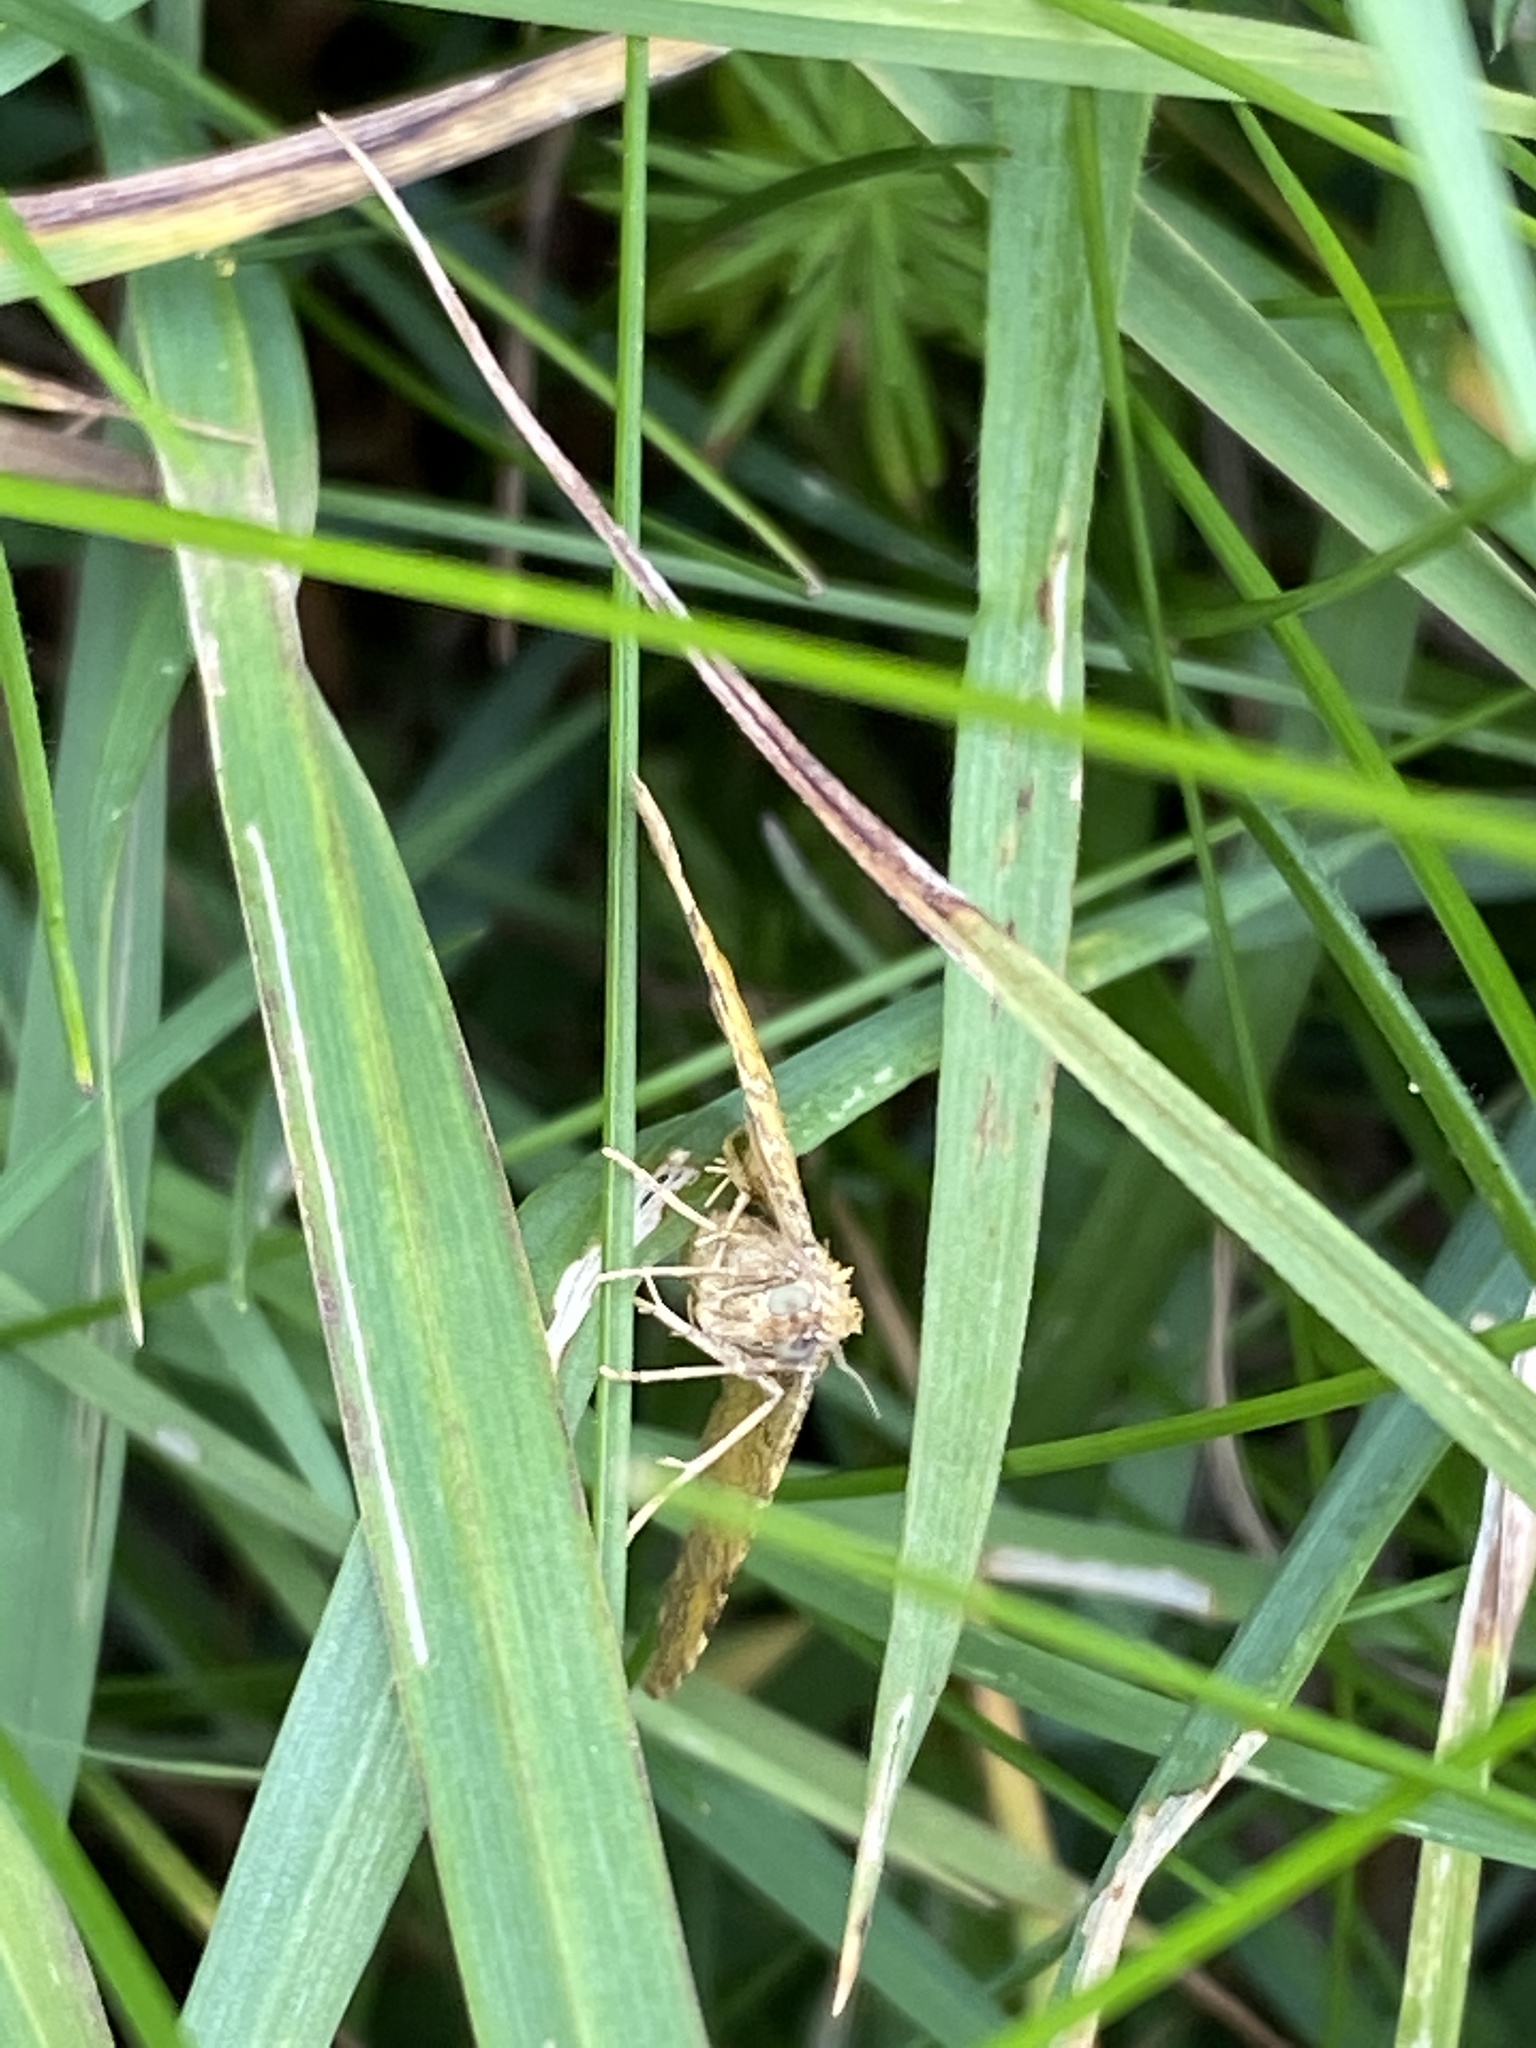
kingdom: Animalia
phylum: Arthropoda
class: Insecta
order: Lepidoptera
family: Geometridae
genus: Camptogramma
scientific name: Camptogramma bilineata
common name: Yellow shell
